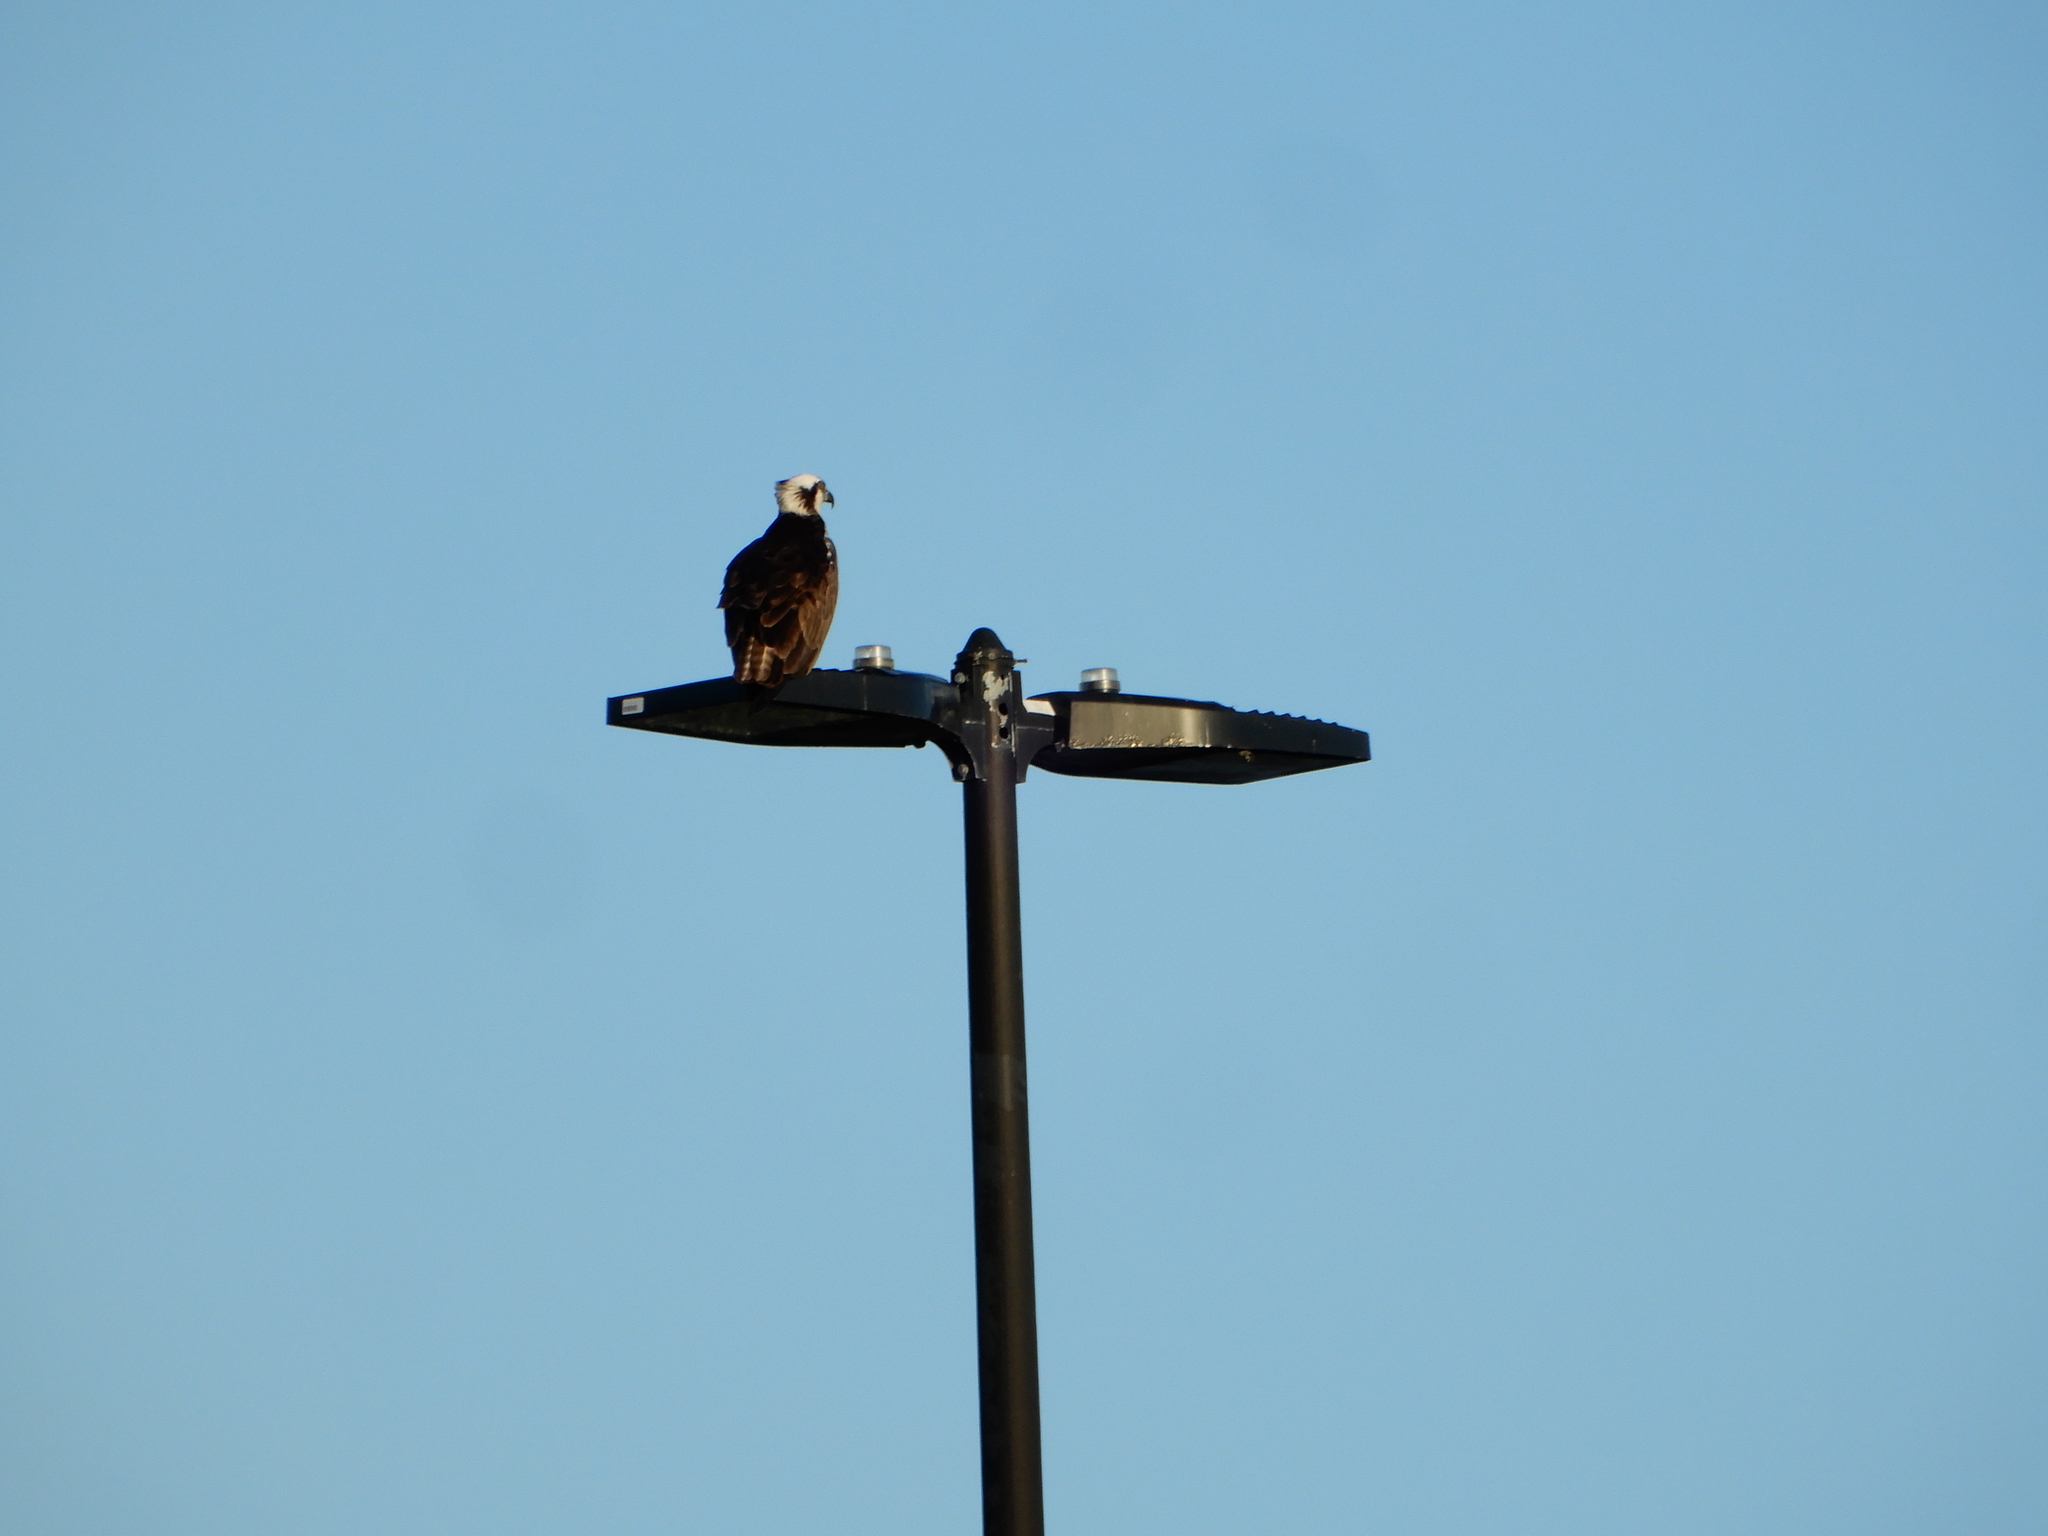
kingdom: Animalia
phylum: Chordata
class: Aves
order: Accipitriformes
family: Pandionidae
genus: Pandion
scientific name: Pandion haliaetus
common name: Osprey
